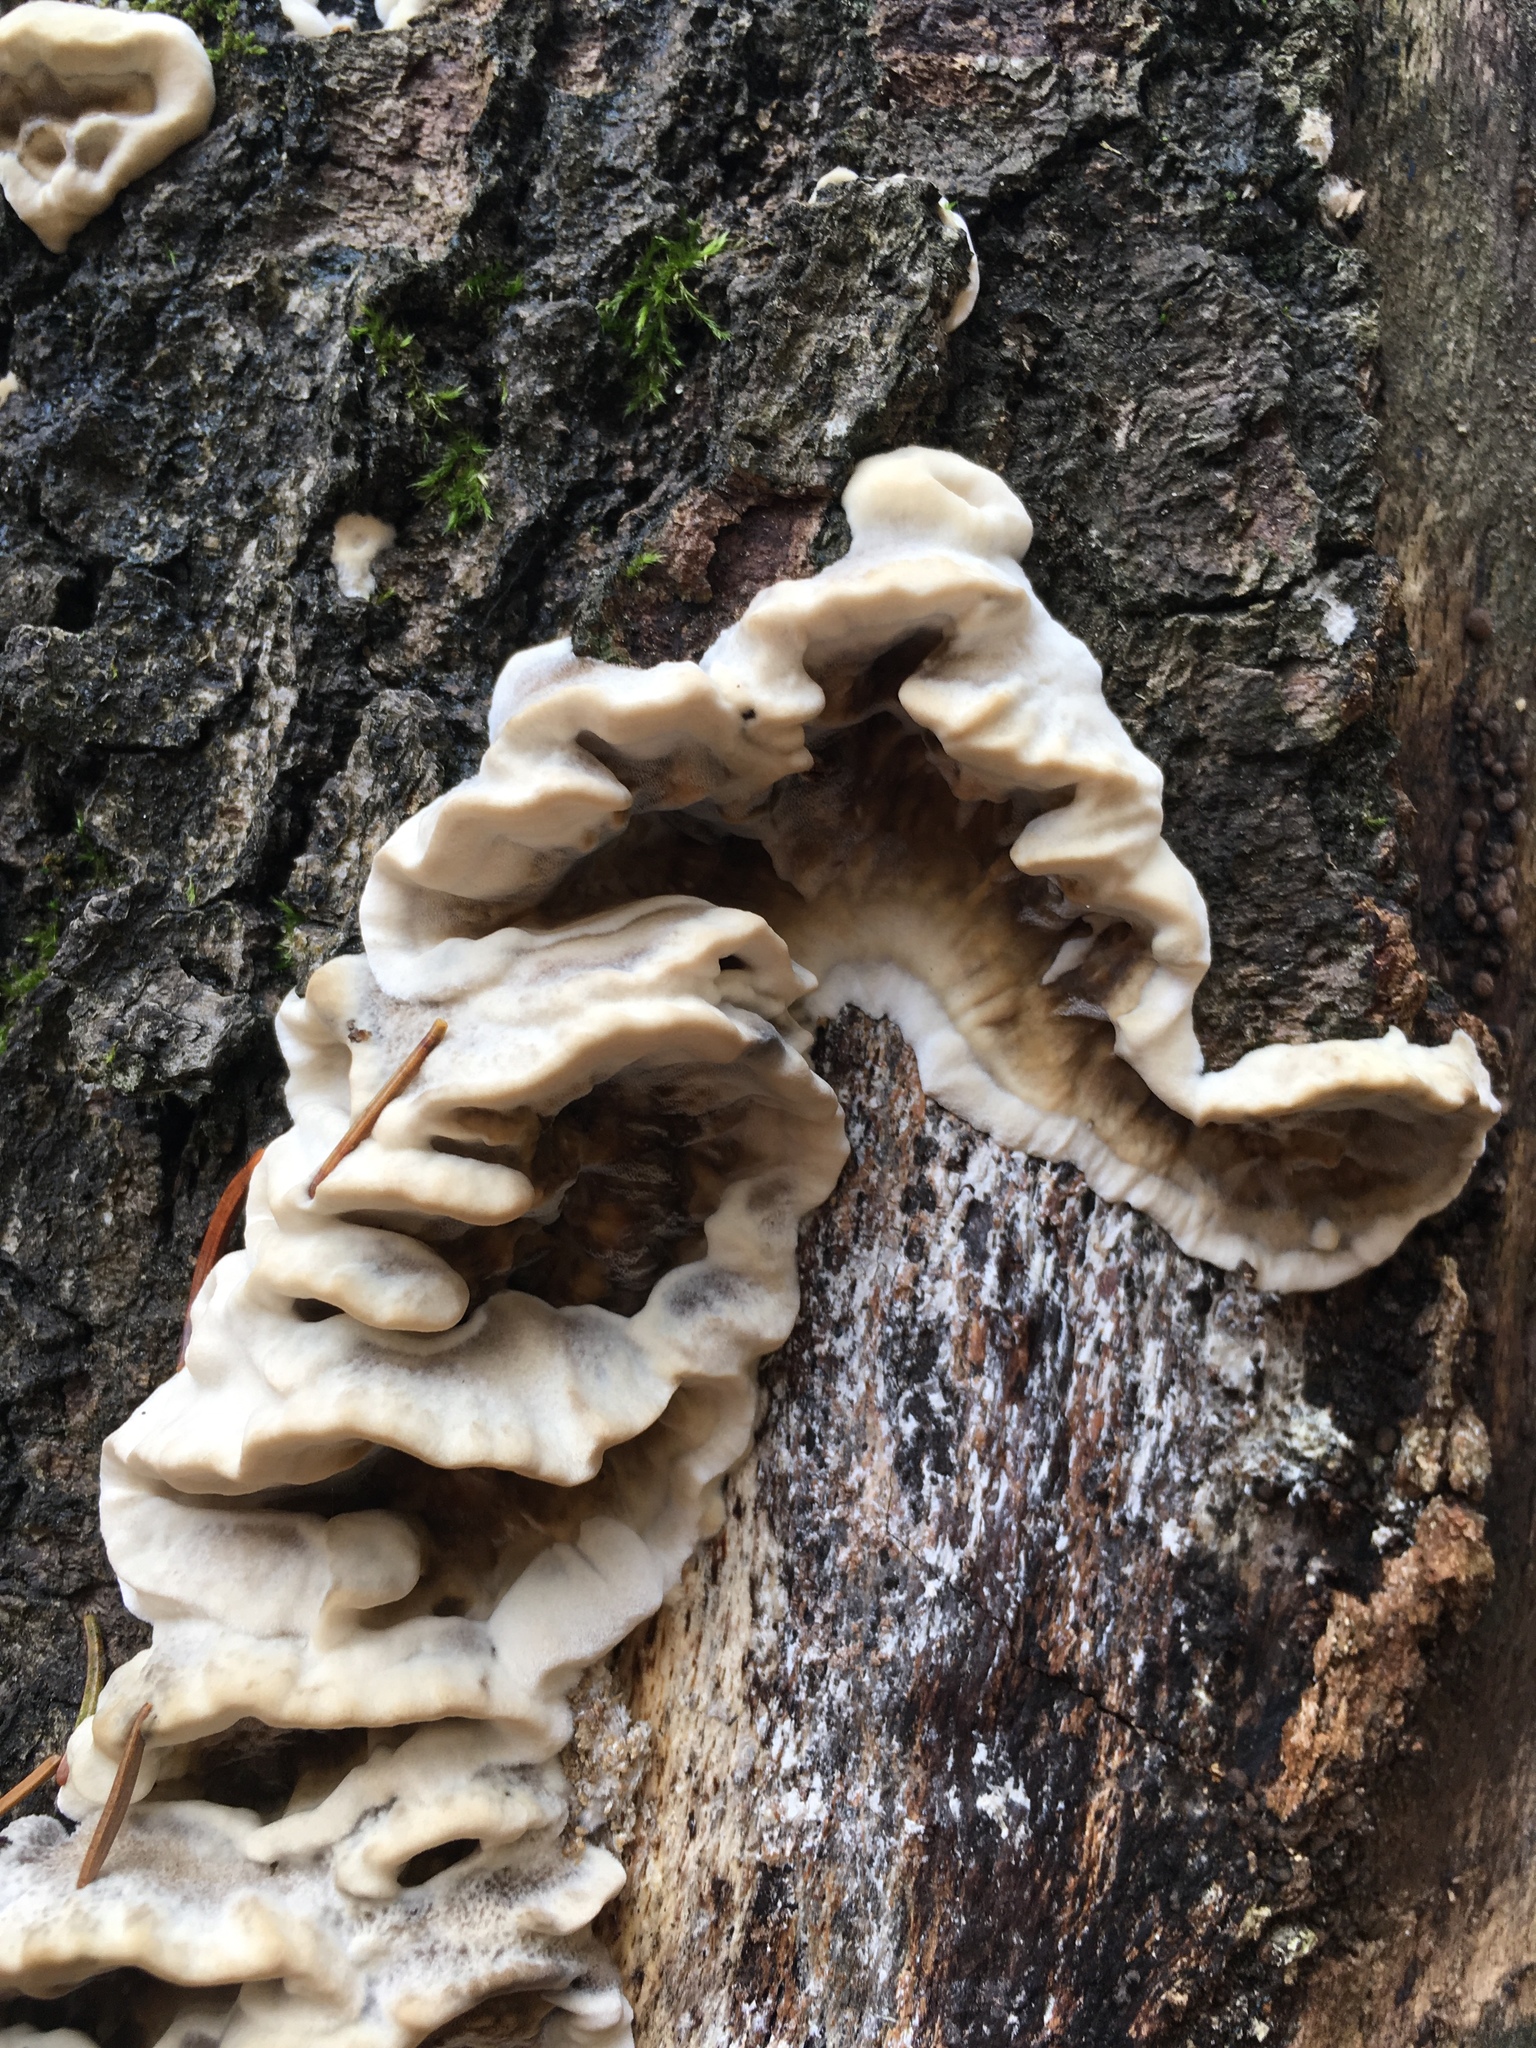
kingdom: Fungi
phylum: Basidiomycota
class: Agaricomycetes
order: Polyporales
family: Phanerochaetaceae
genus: Bjerkandera
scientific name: Bjerkandera adusta
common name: Smoky bracket
